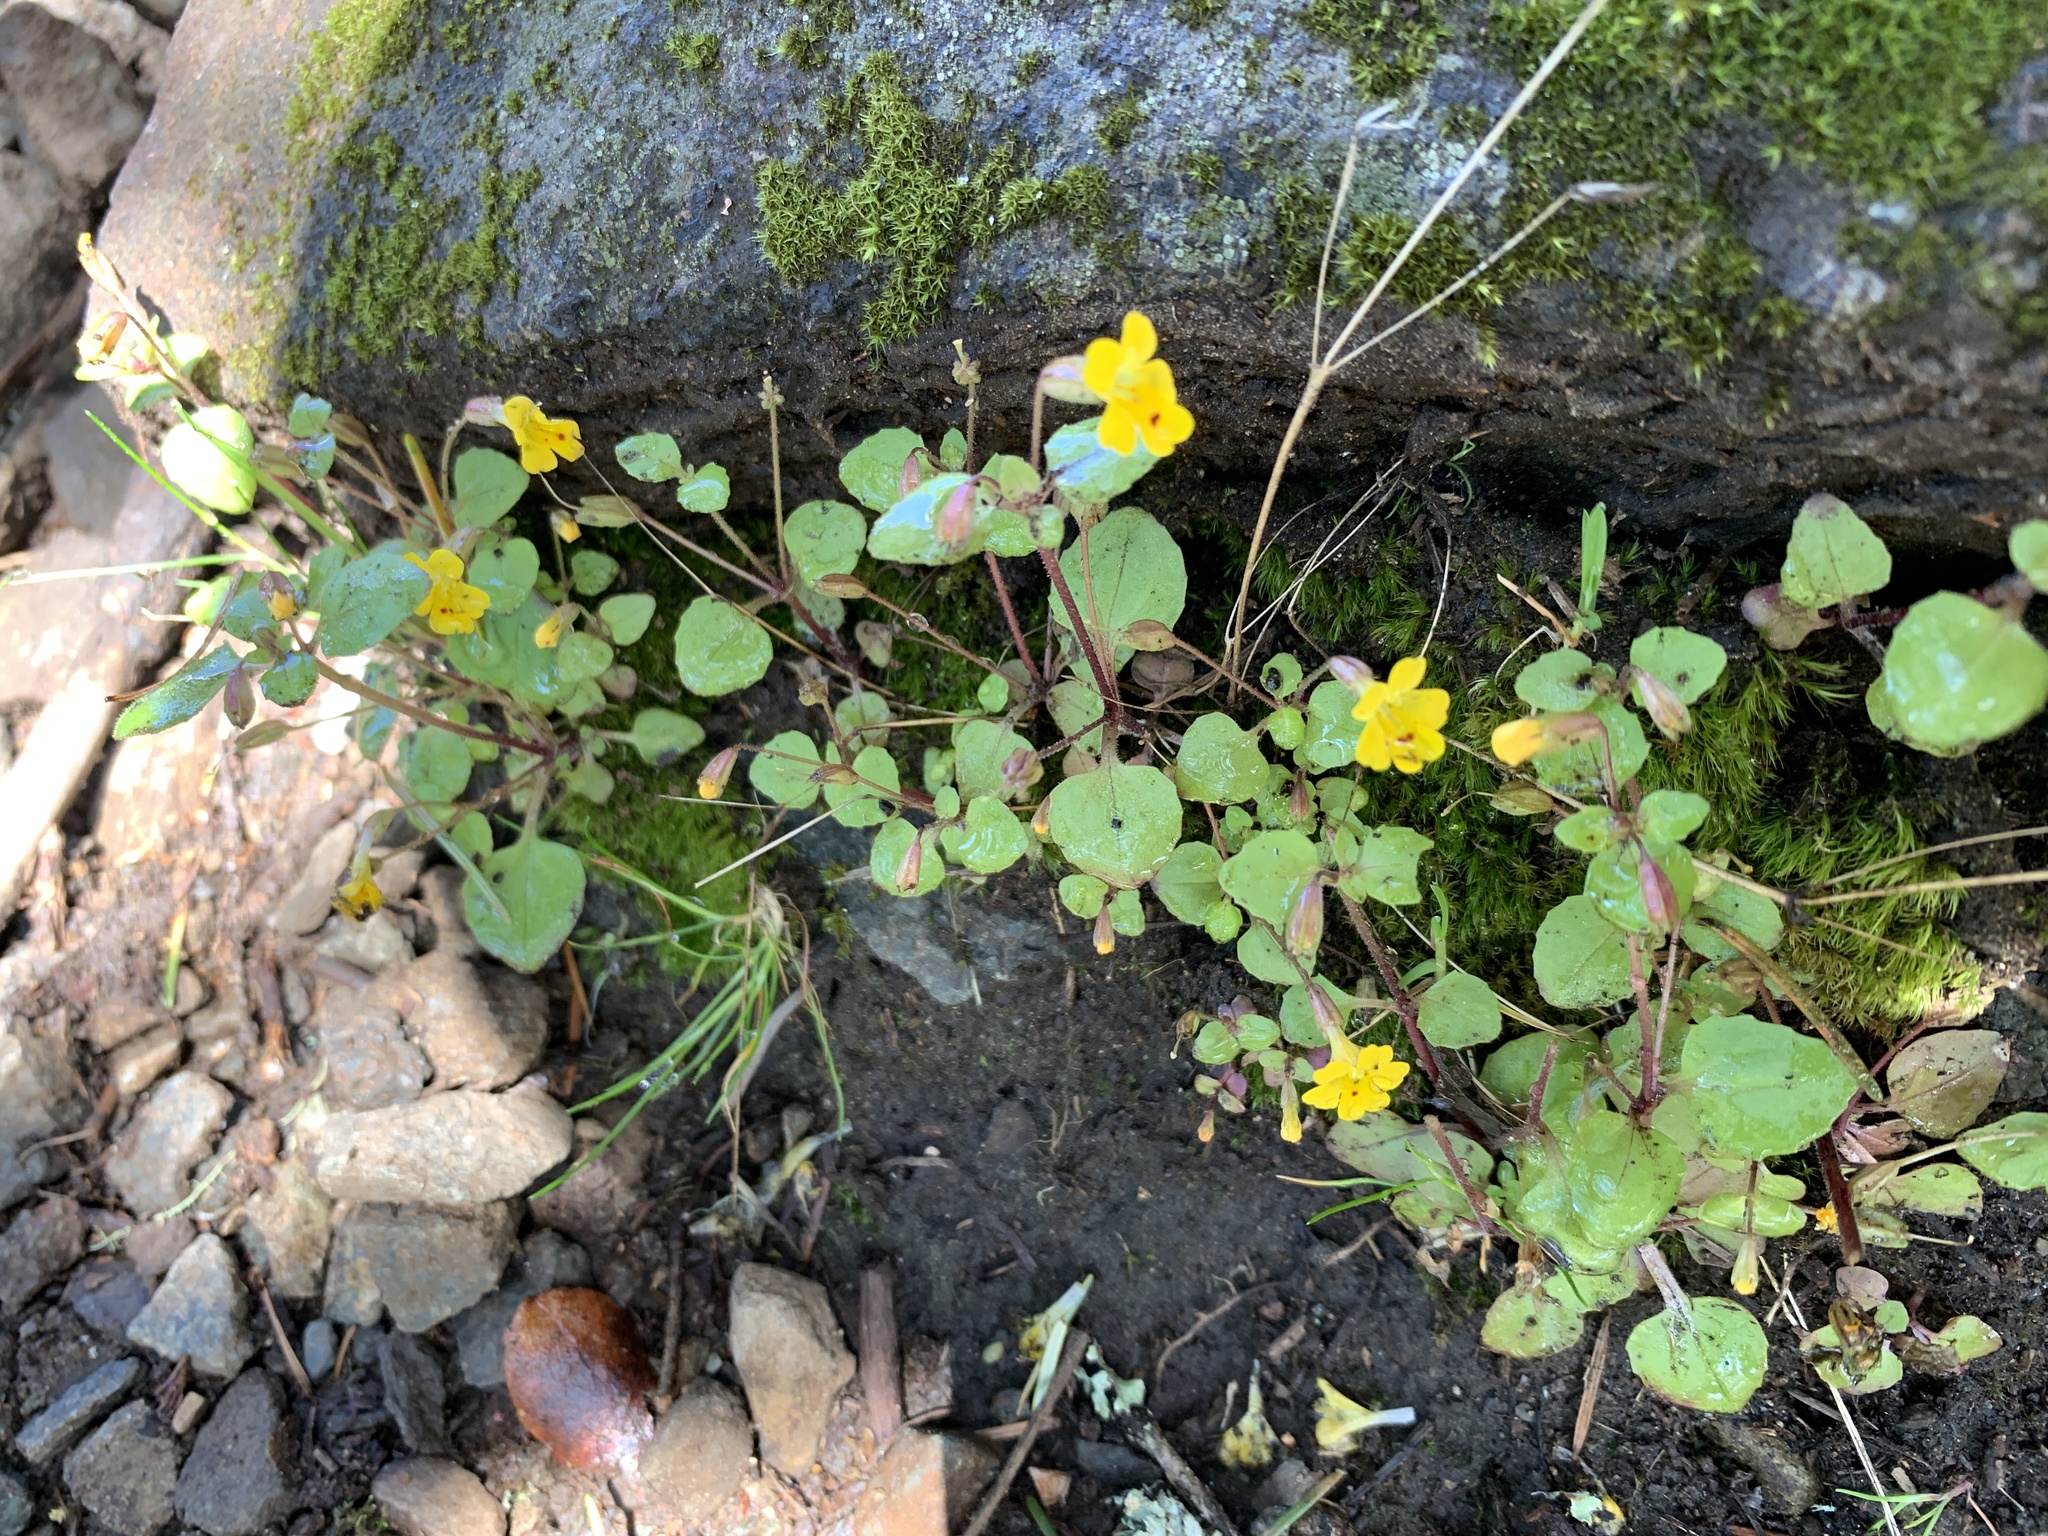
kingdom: Plantae
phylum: Tracheophyta
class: Magnoliopsida
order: Lamiales
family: Phrymaceae
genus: Erythranthe
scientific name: Erythranthe alsinoides
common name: Chickweed monkeyflower
